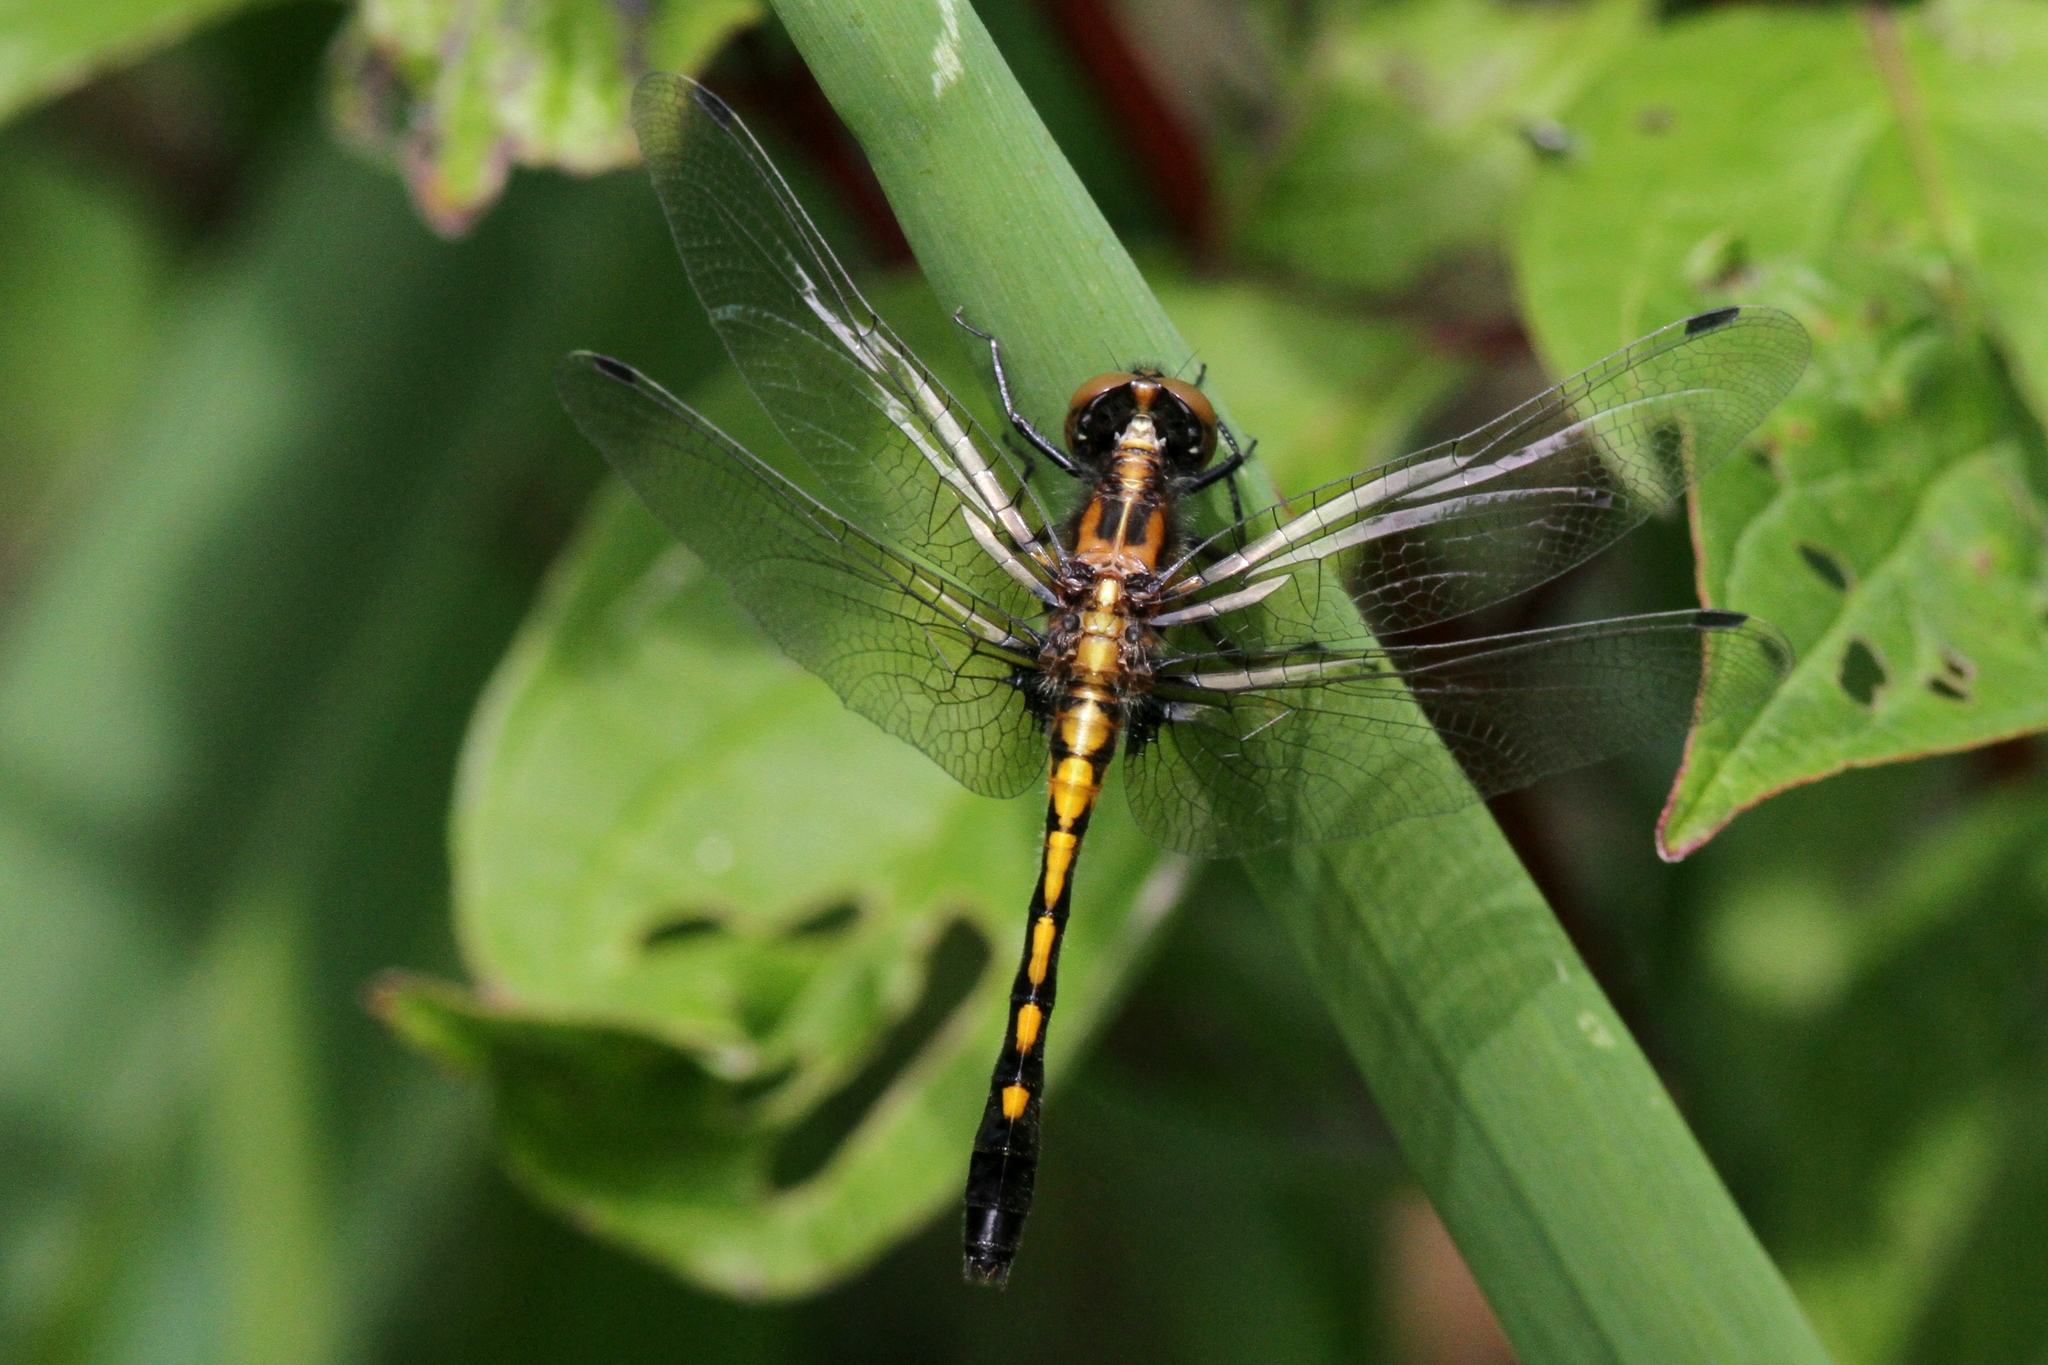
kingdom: Animalia
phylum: Arthropoda
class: Insecta
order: Odonata
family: Libellulidae
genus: Leucorrhinia
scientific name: Leucorrhinia intacta
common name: Dot-tailed whiteface
